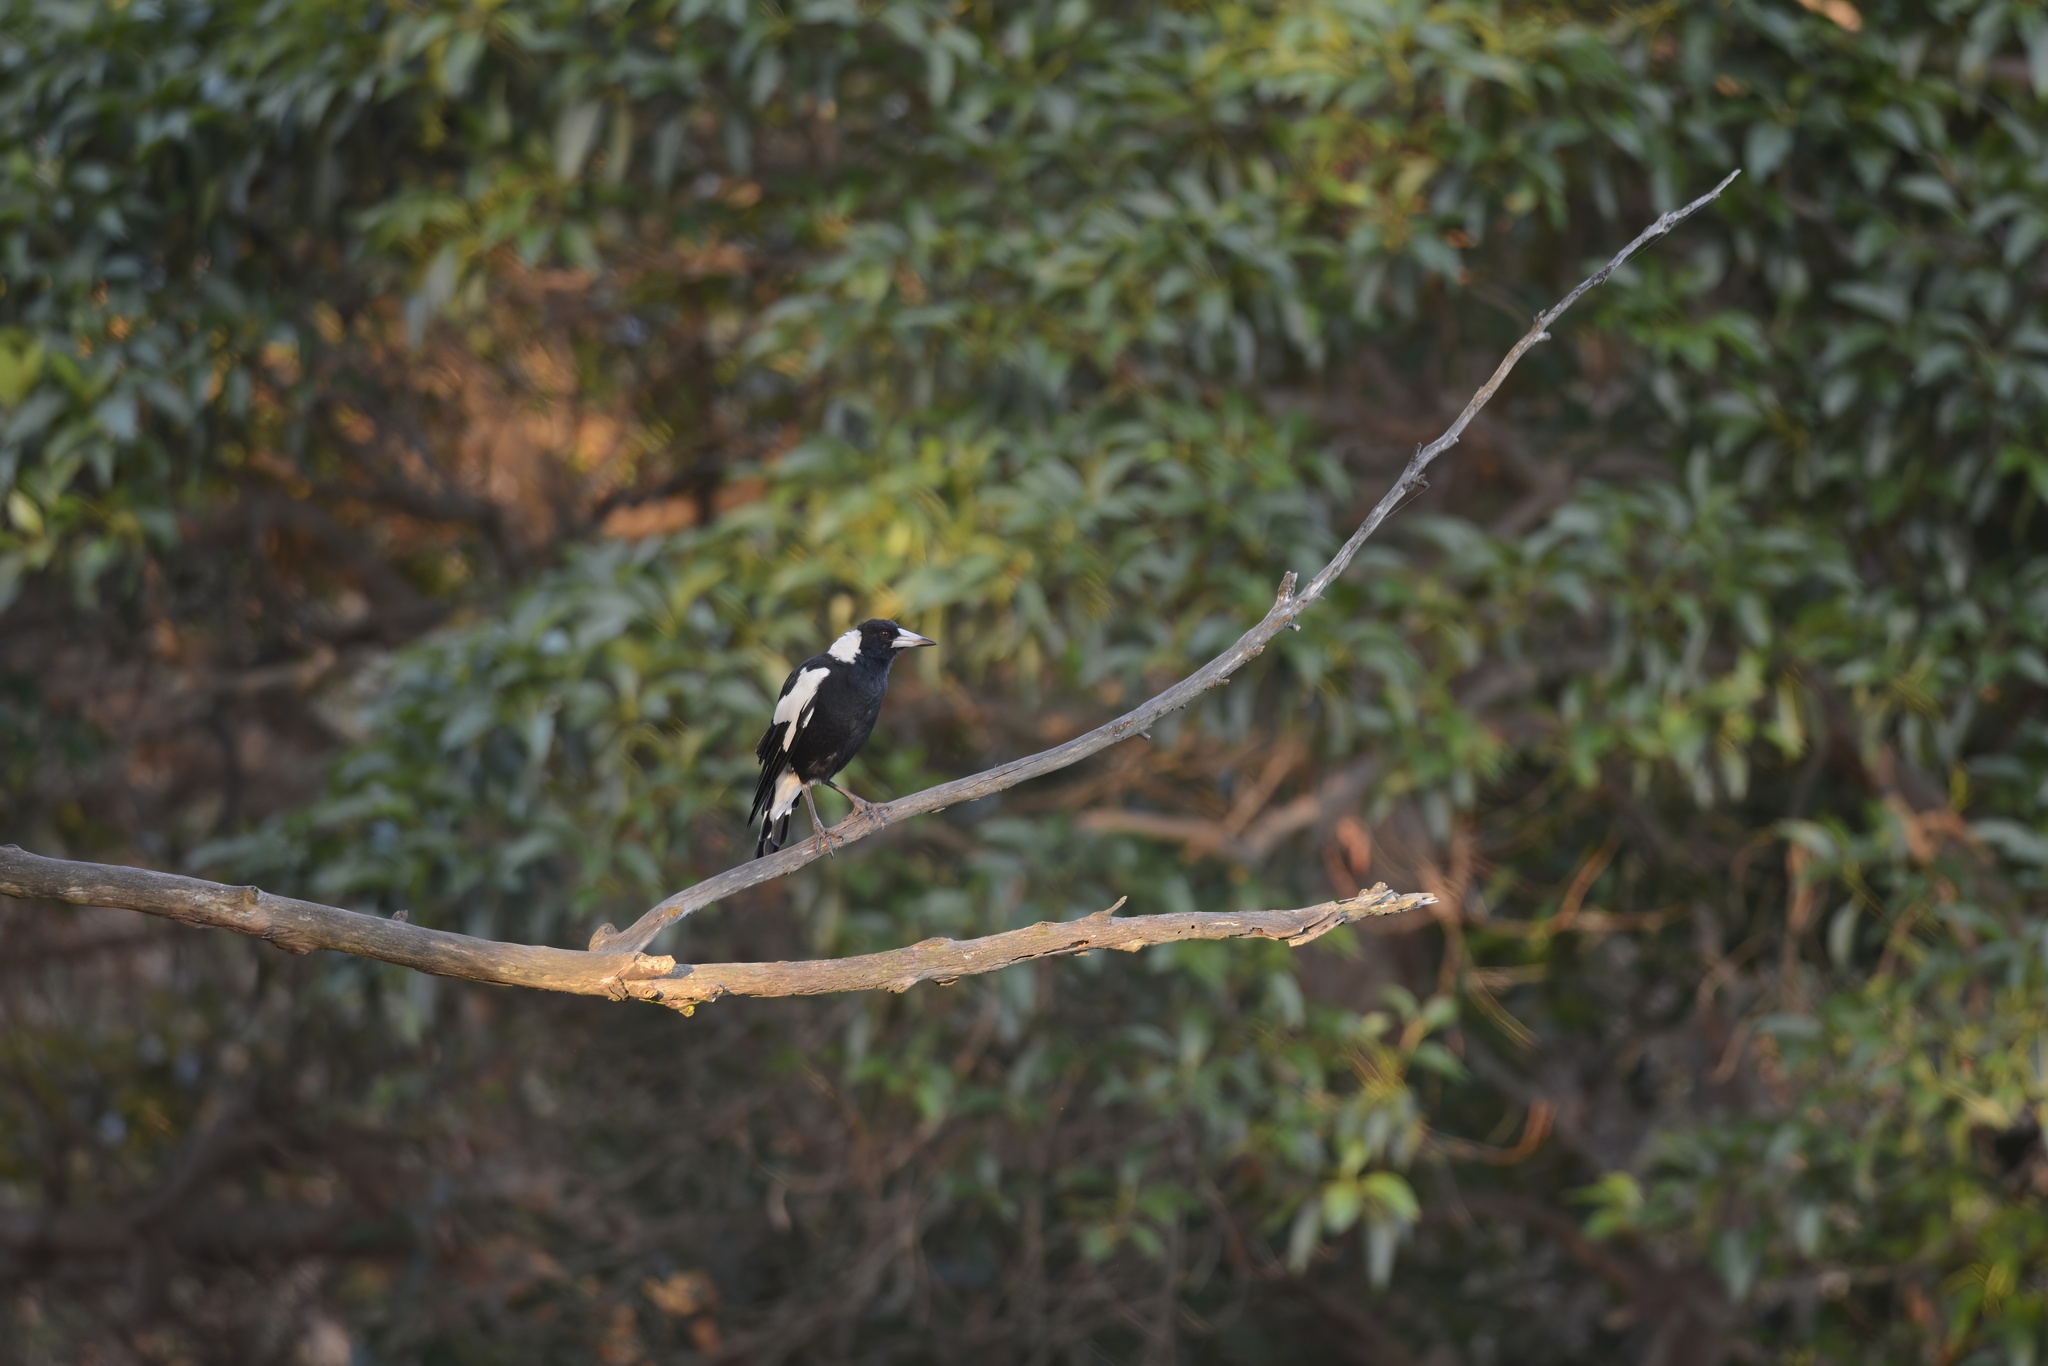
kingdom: Animalia
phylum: Chordata
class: Aves
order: Passeriformes
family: Cracticidae
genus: Gymnorhina
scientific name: Gymnorhina tibicen
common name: Australian magpie
